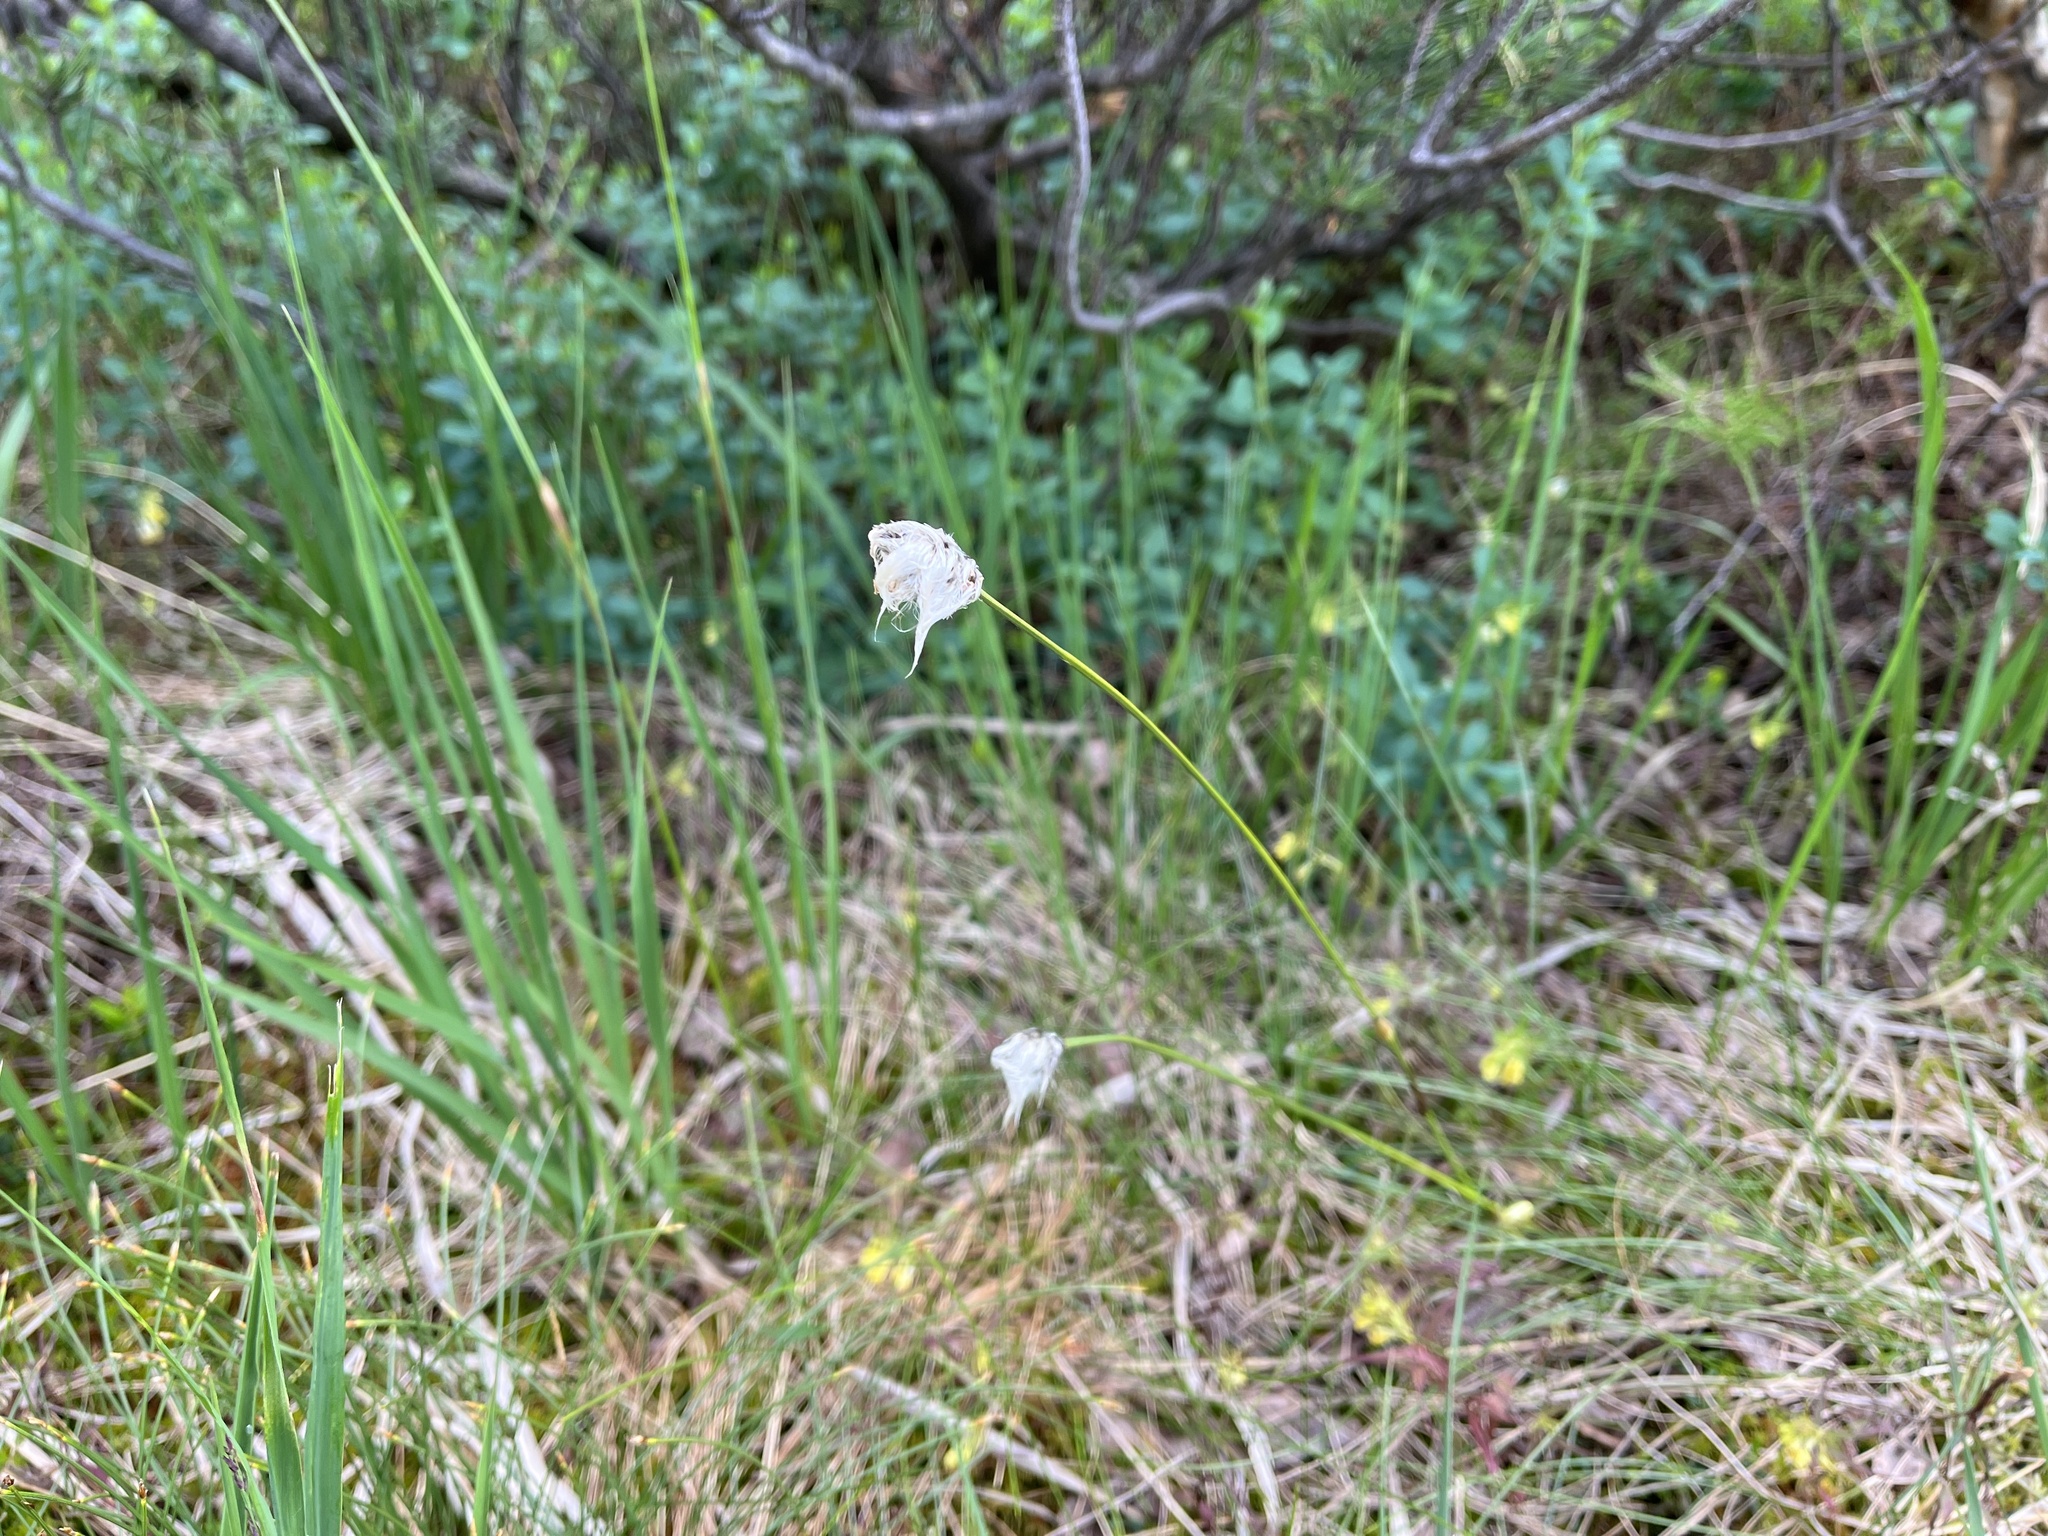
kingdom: Plantae
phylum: Tracheophyta
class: Liliopsida
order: Poales
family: Cyperaceae
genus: Eriophorum
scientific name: Eriophorum vaginatum
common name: Hare's-tail cottongrass
